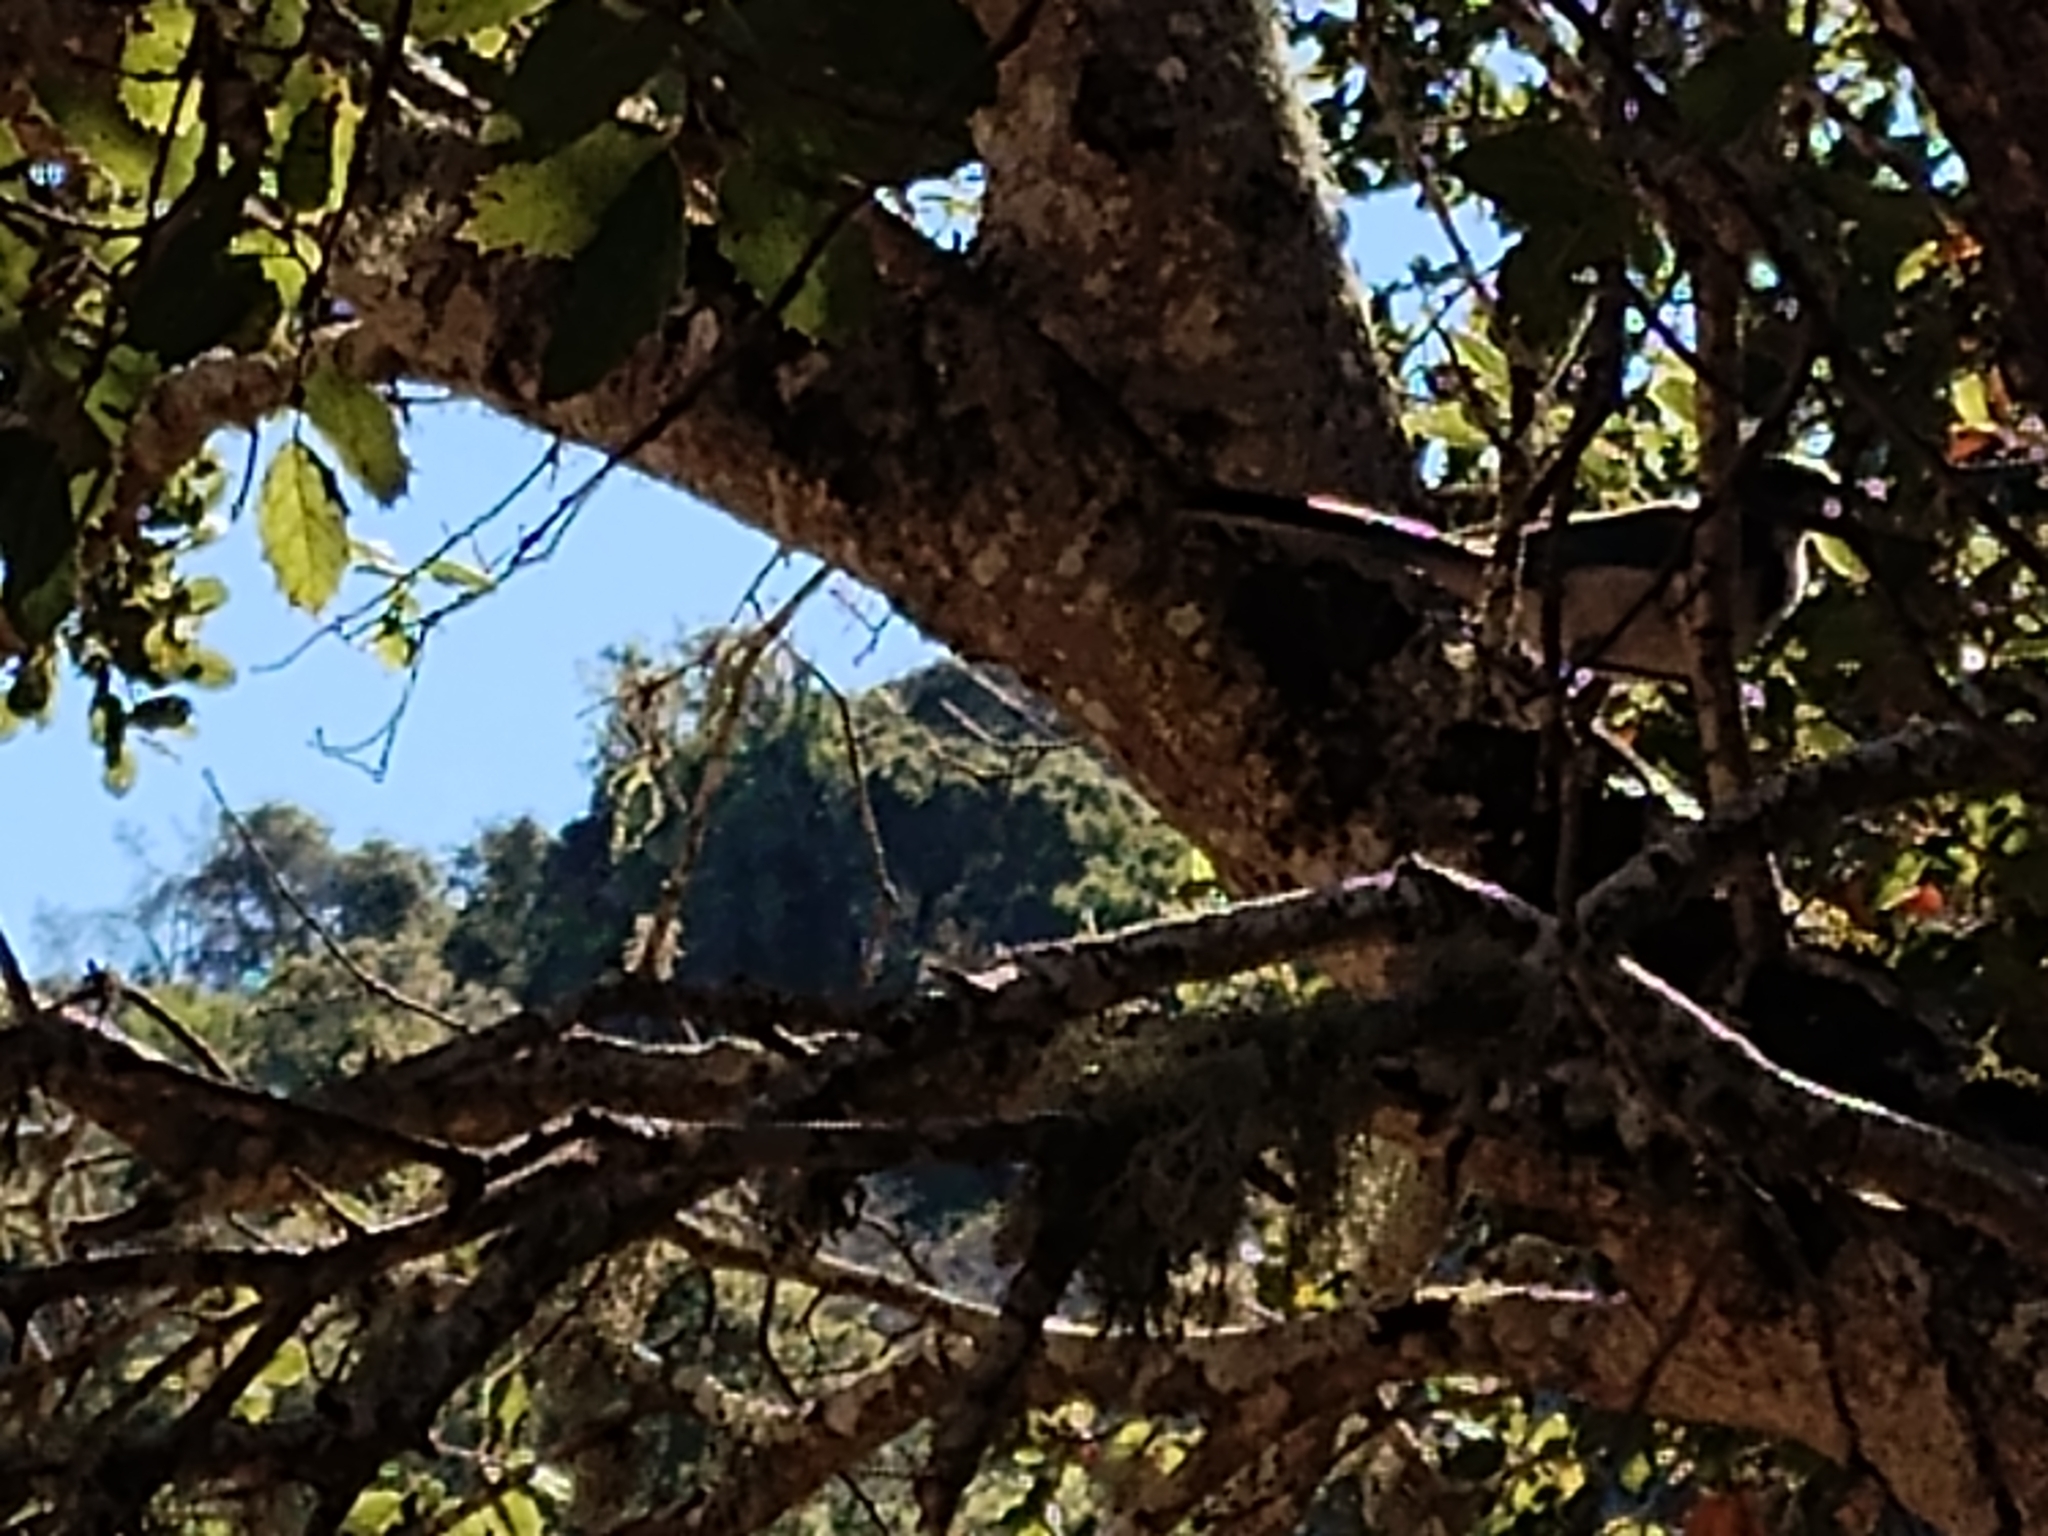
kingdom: Animalia
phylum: Chordata
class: Aves
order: Passeriformes
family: Corvidae
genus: Aphelocoma
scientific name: Aphelocoma californica
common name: California scrub-jay
